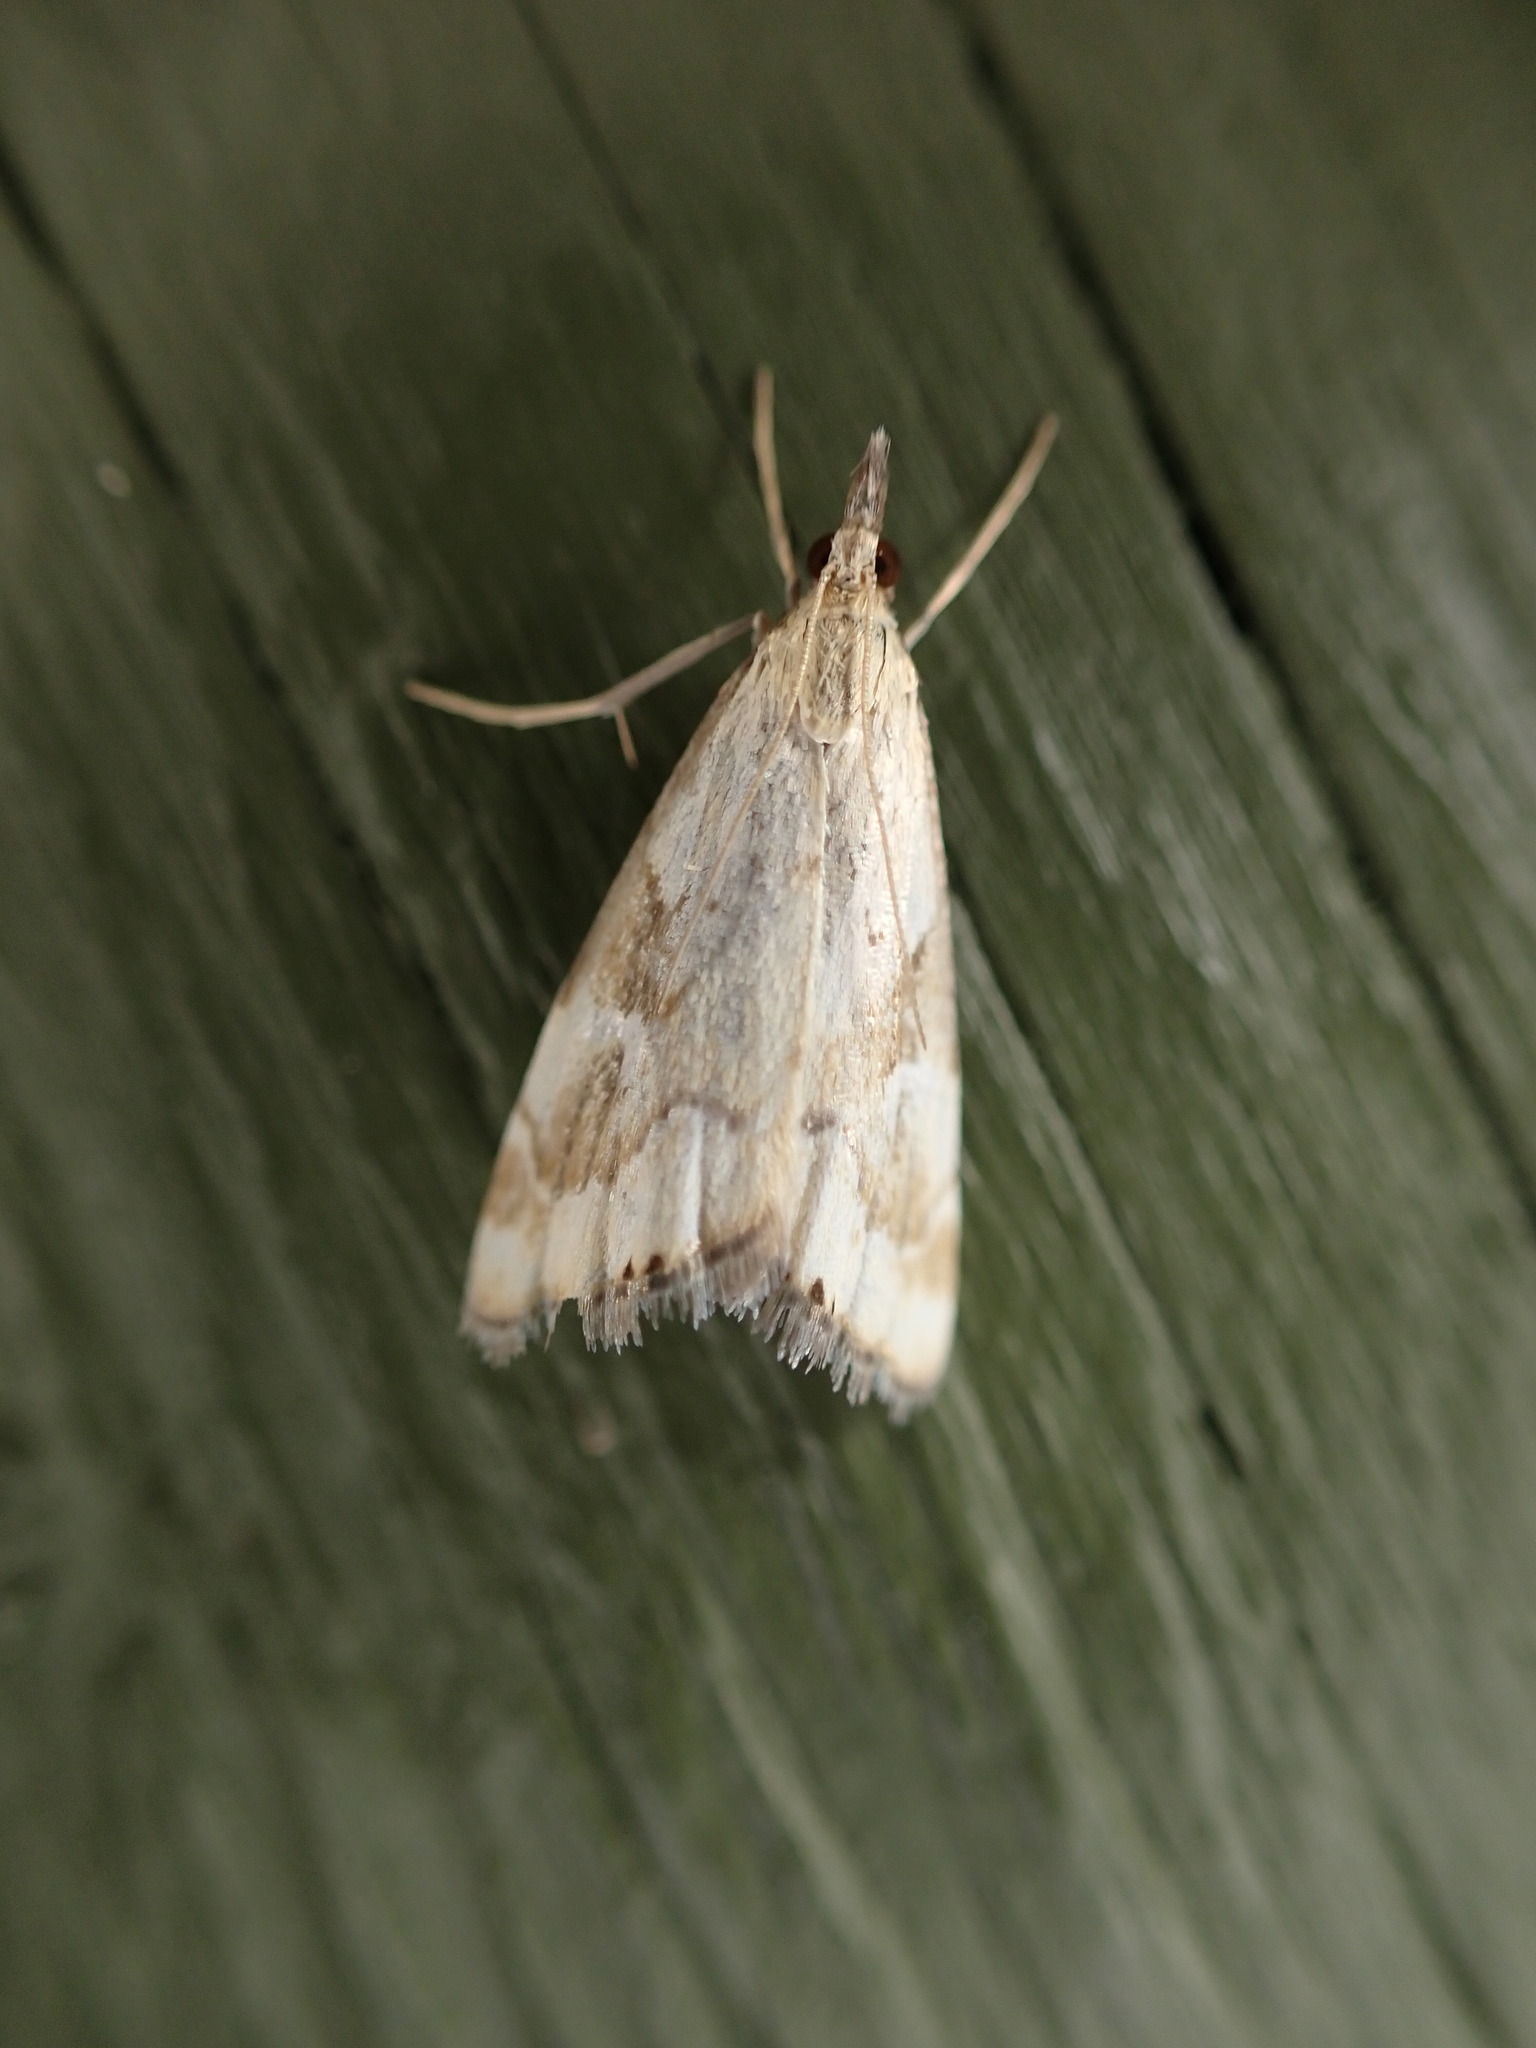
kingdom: Animalia
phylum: Arthropoda
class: Insecta
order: Lepidoptera
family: Crambidae
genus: Glaucocharis
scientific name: Glaucocharis lepidella
